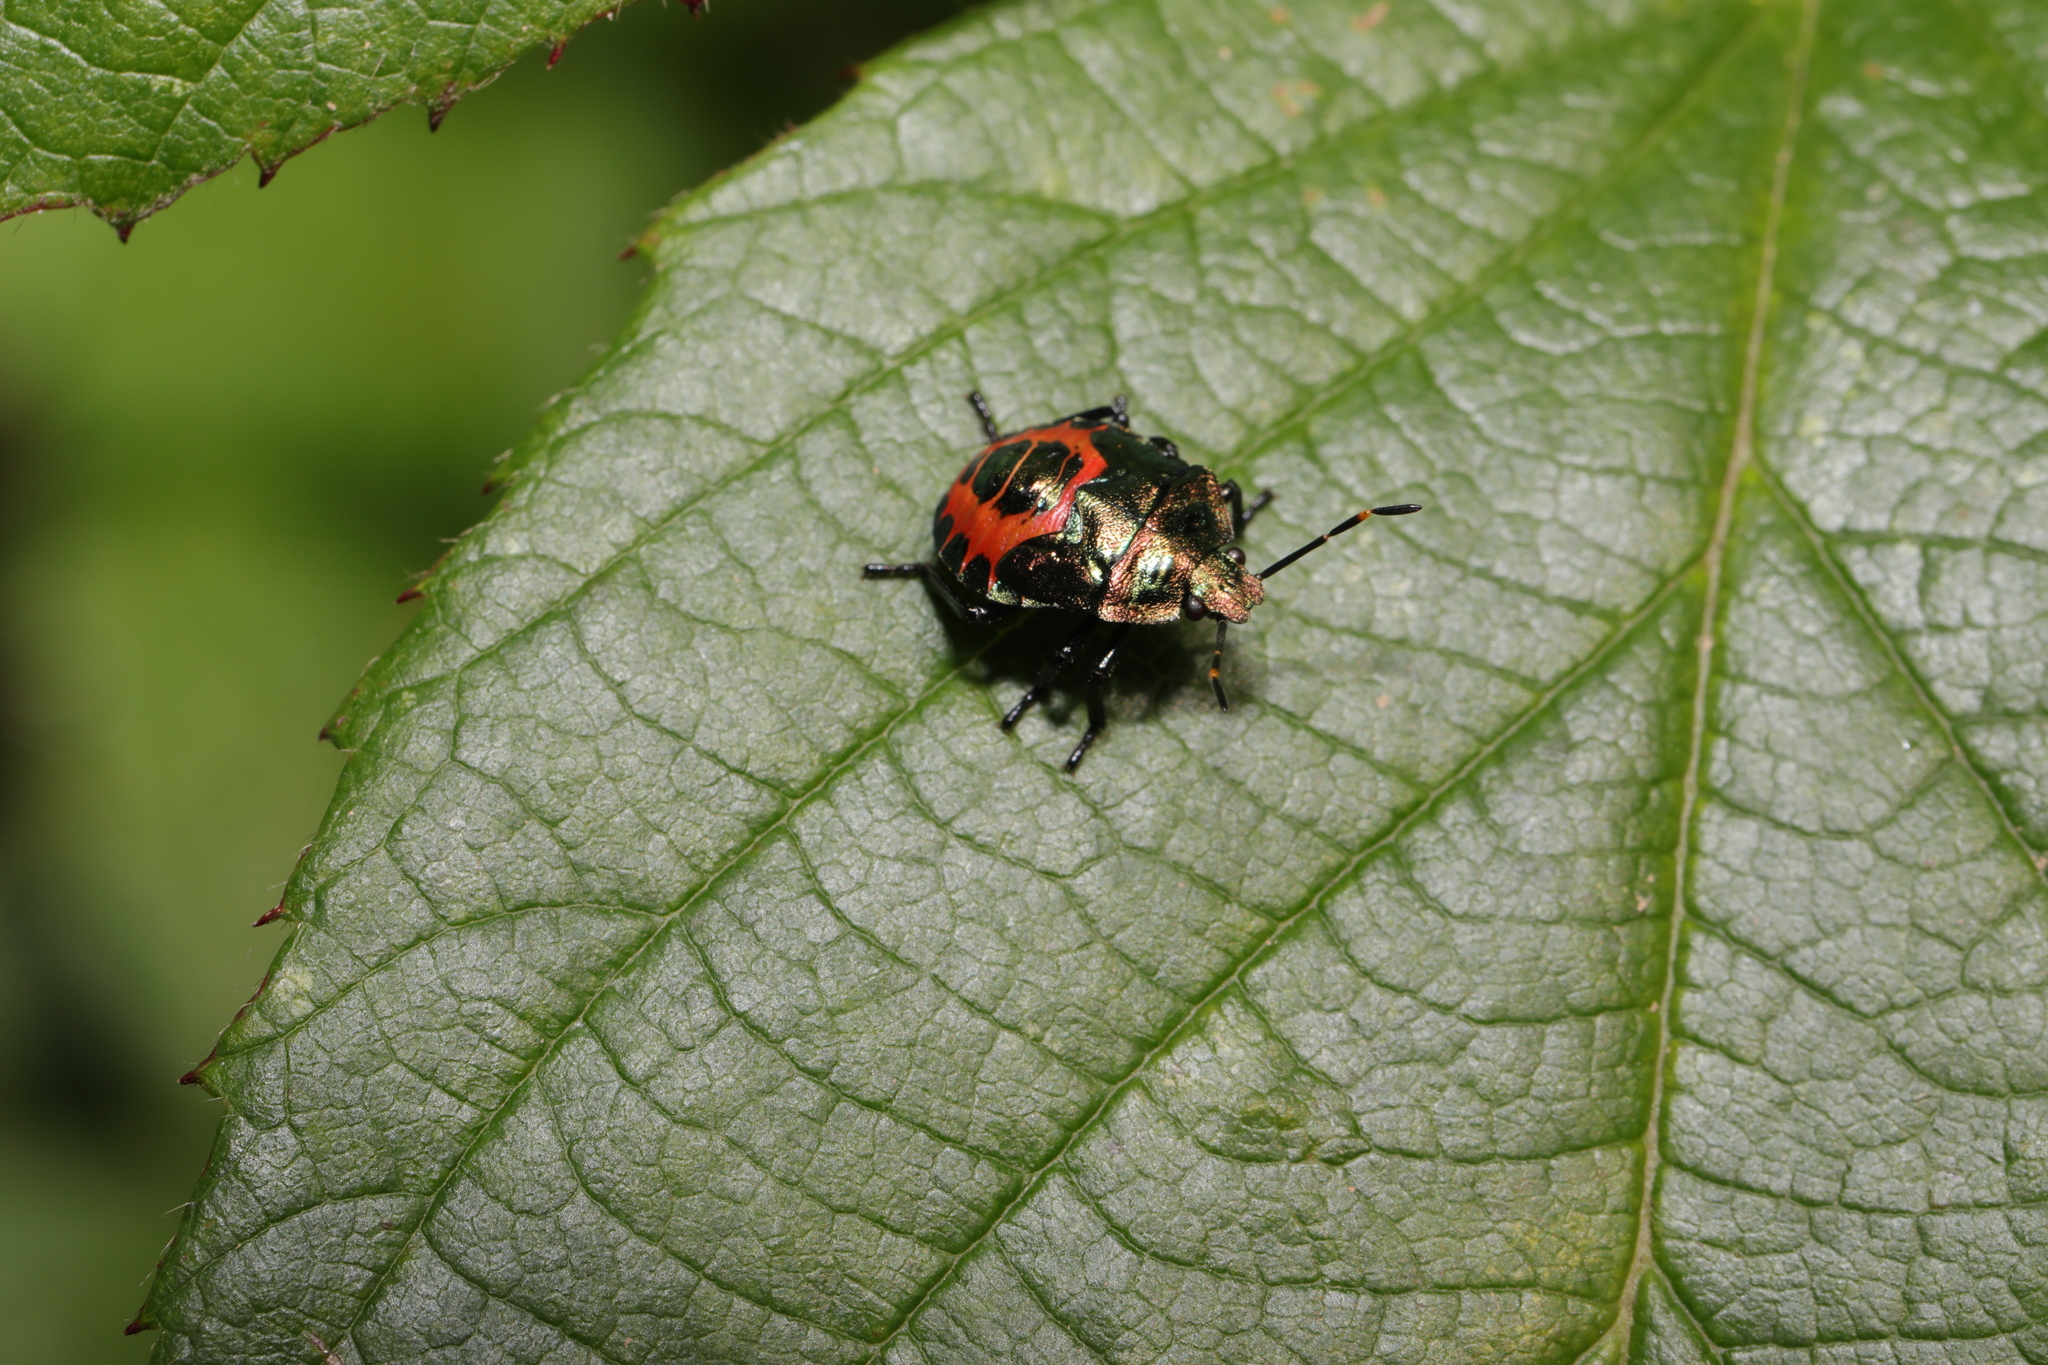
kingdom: Animalia
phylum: Arthropoda
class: Insecta
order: Hemiptera
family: Pentatomidae
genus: Troilus
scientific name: Troilus luridus
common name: Bronze shieldbug
